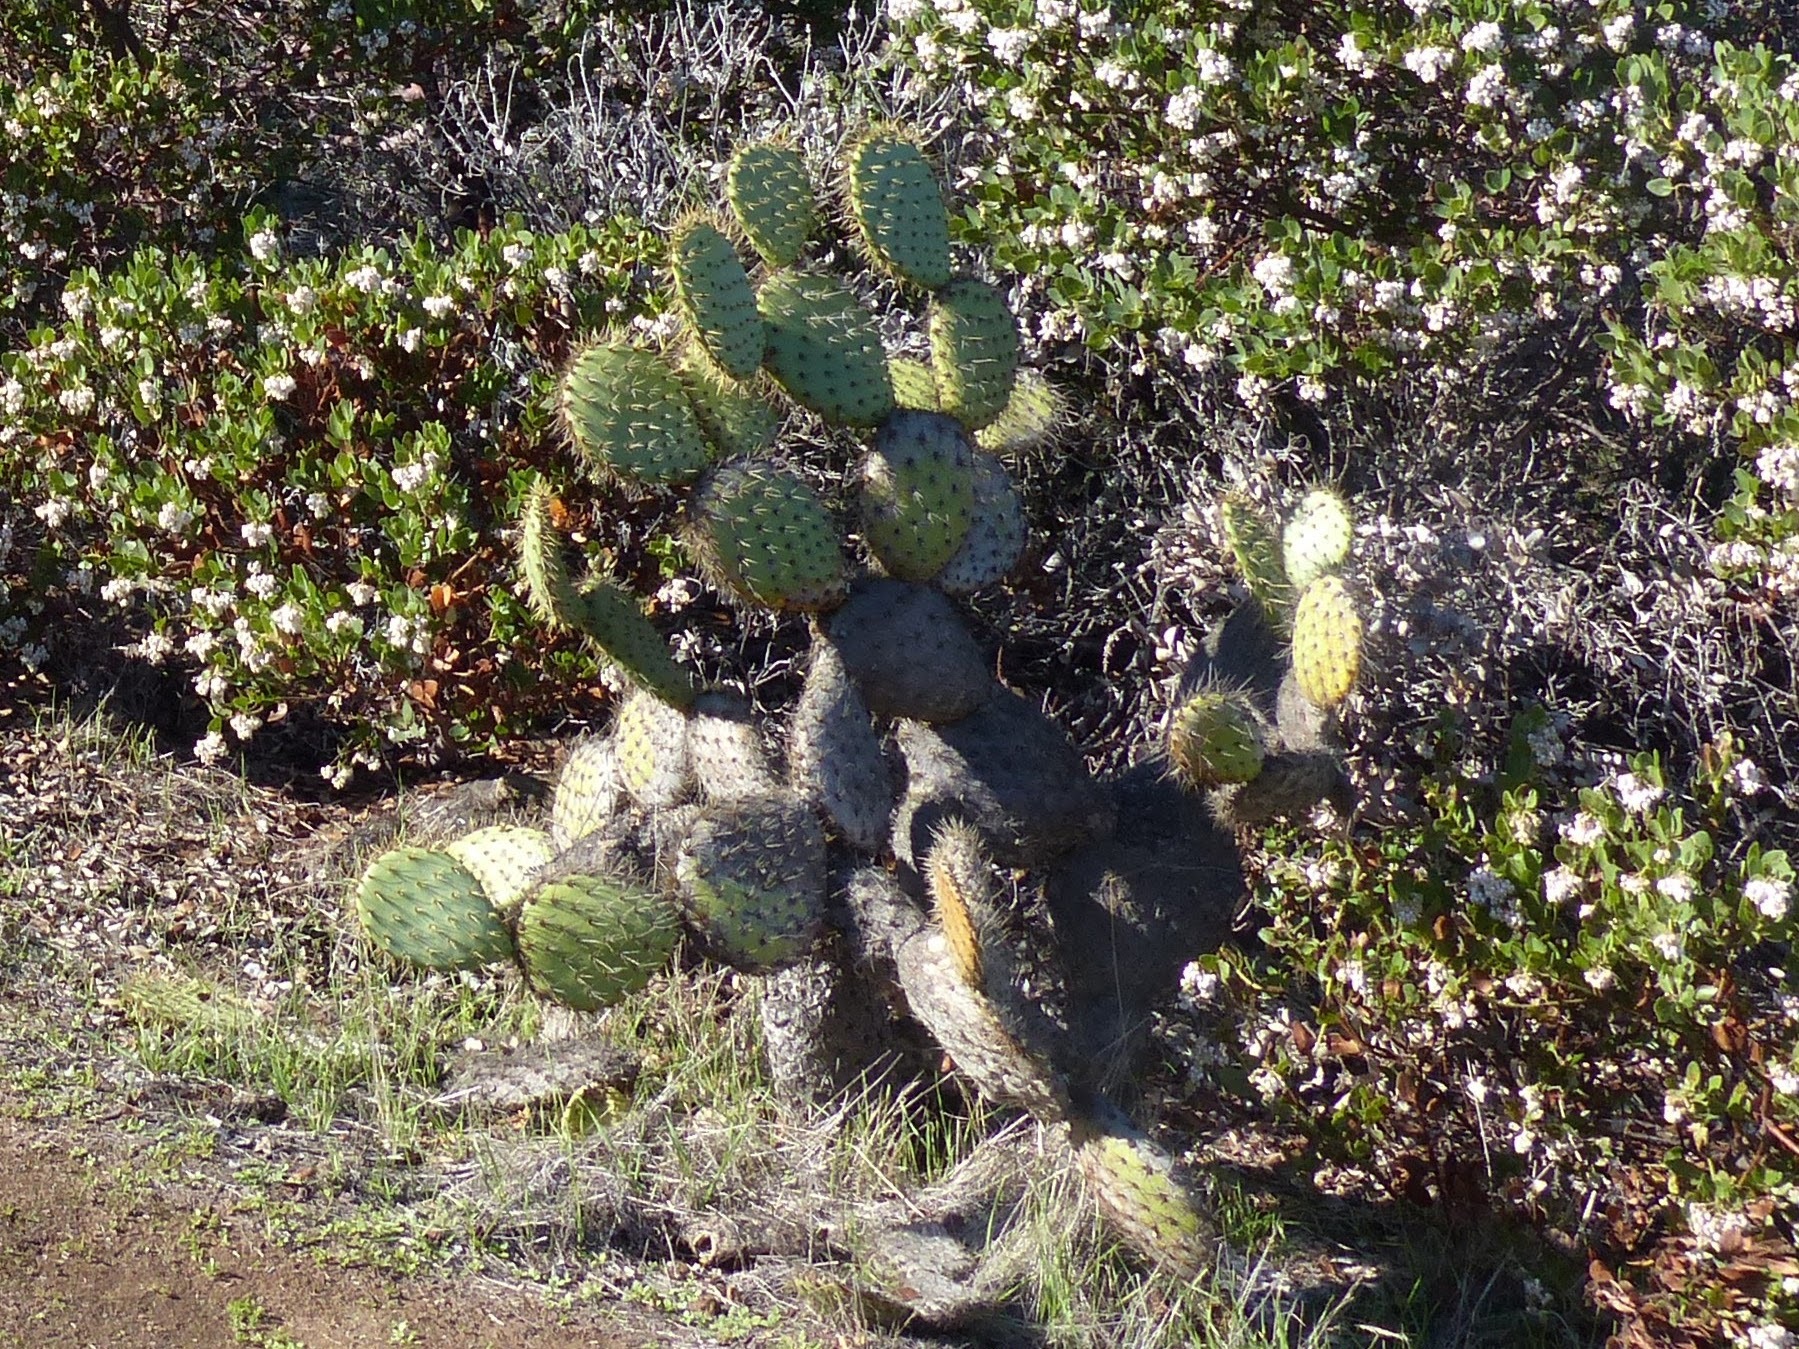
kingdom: Plantae
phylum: Tracheophyta
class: Magnoliopsida
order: Caryophyllales
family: Cactaceae
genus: Opuntia
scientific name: Opuntia oricola
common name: Chaparral prickly-pear
